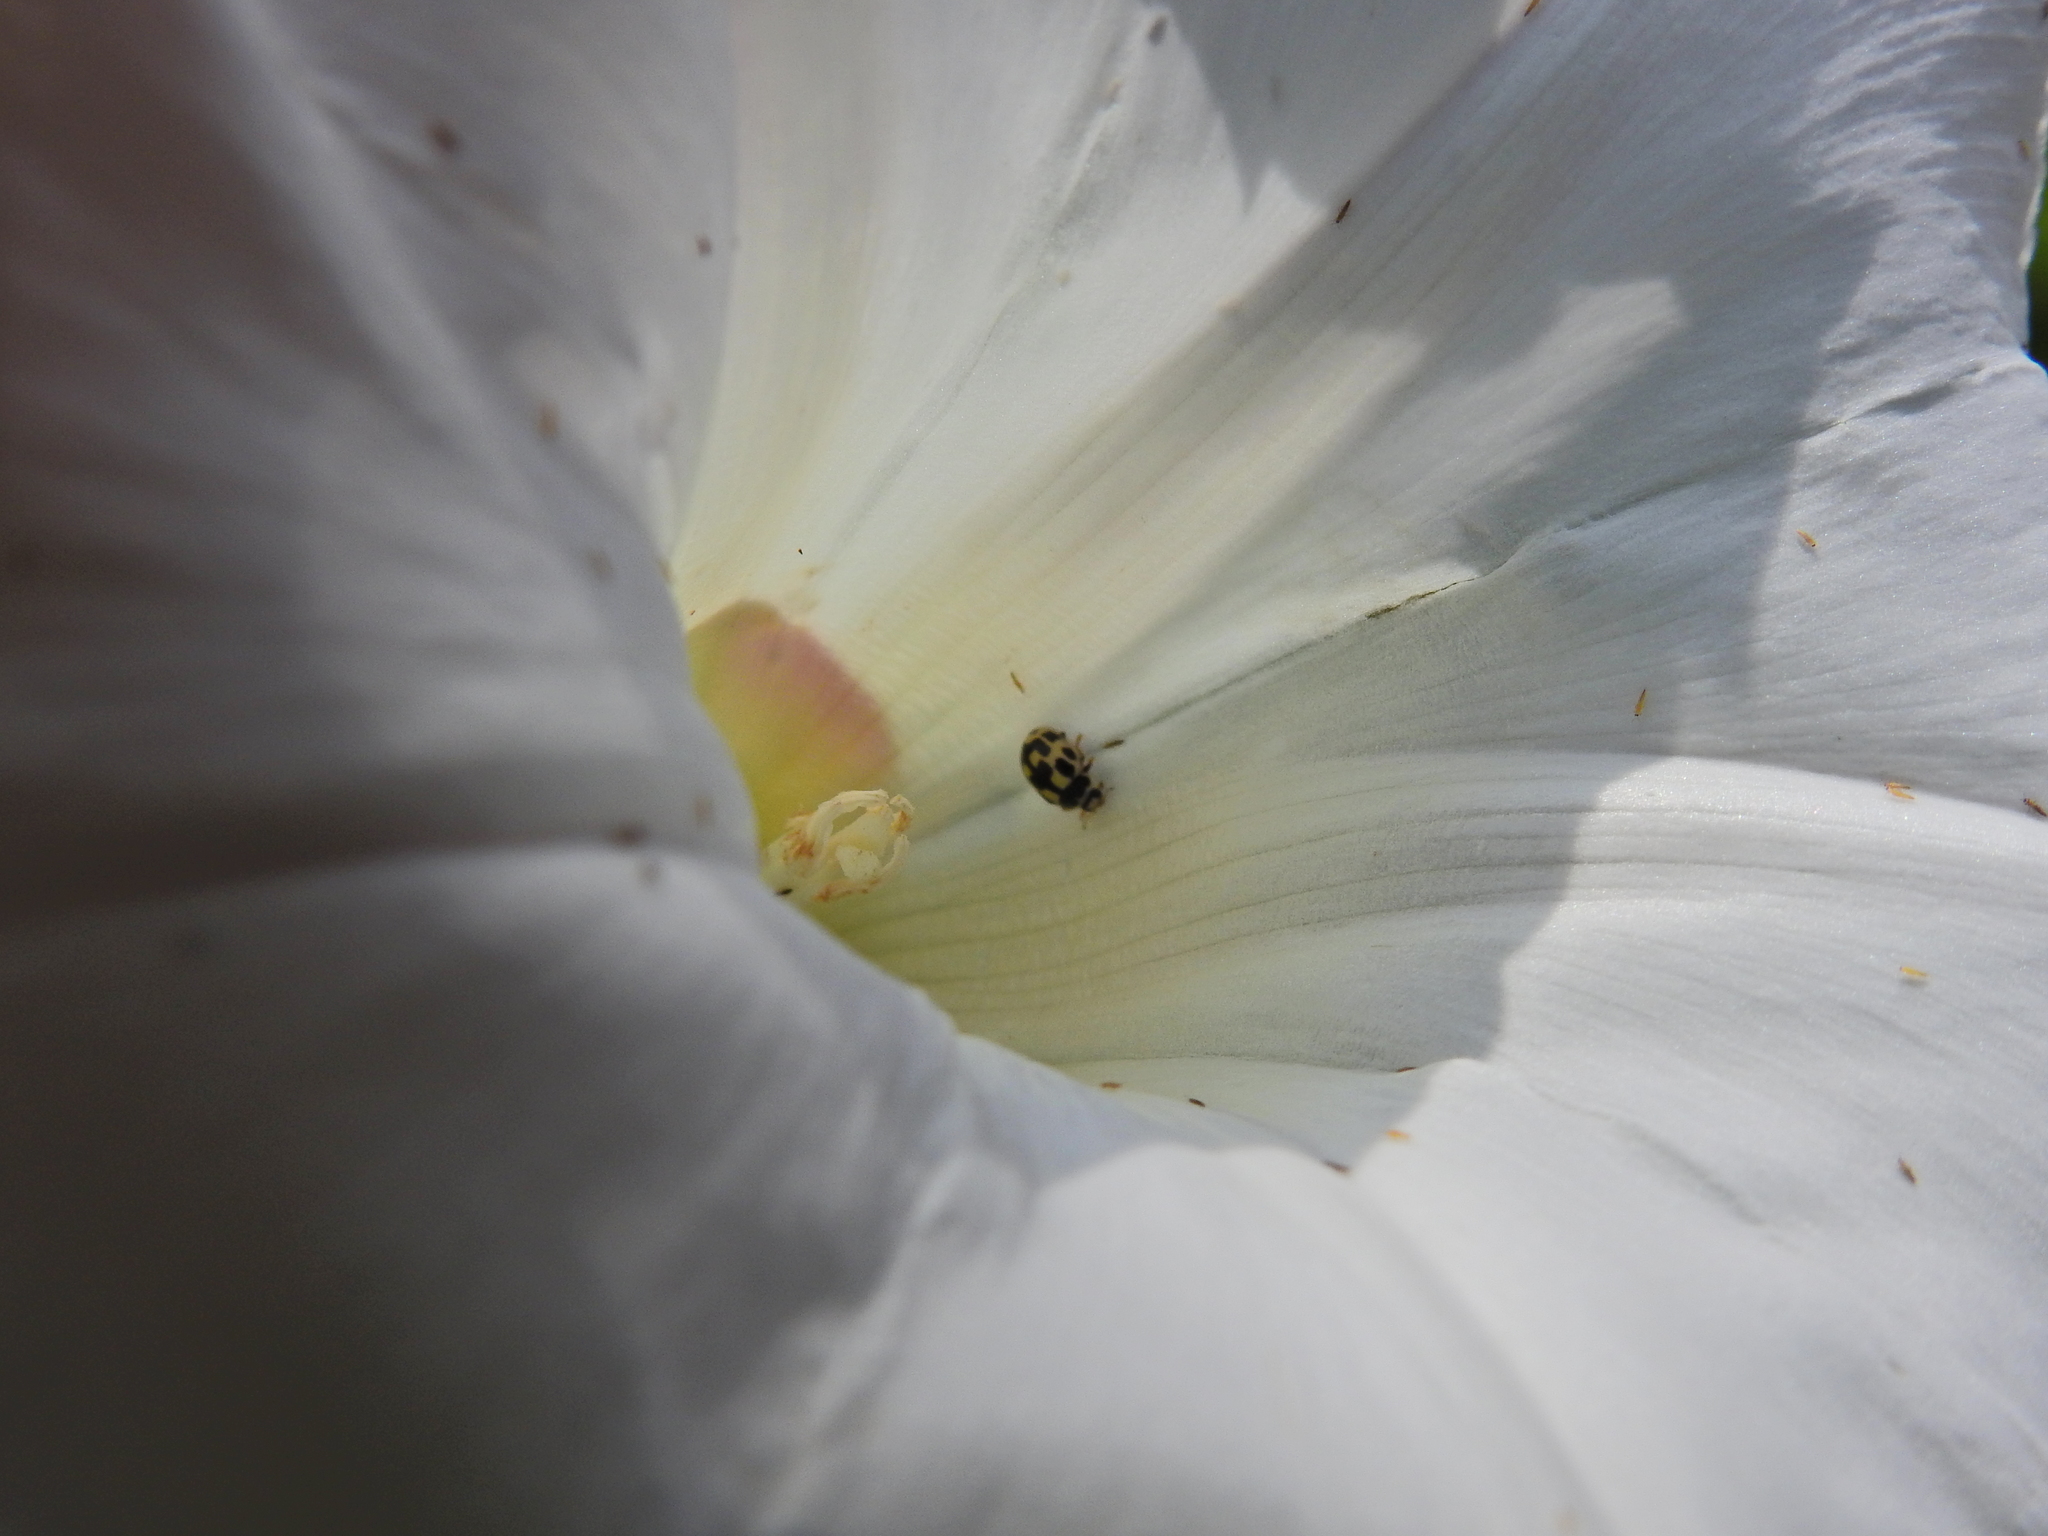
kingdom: Animalia
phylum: Arthropoda
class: Insecta
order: Coleoptera
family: Coccinellidae
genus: Propylaea
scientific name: Propylaea quatuordecimpunctata
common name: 14-spotted ladybird beetle
